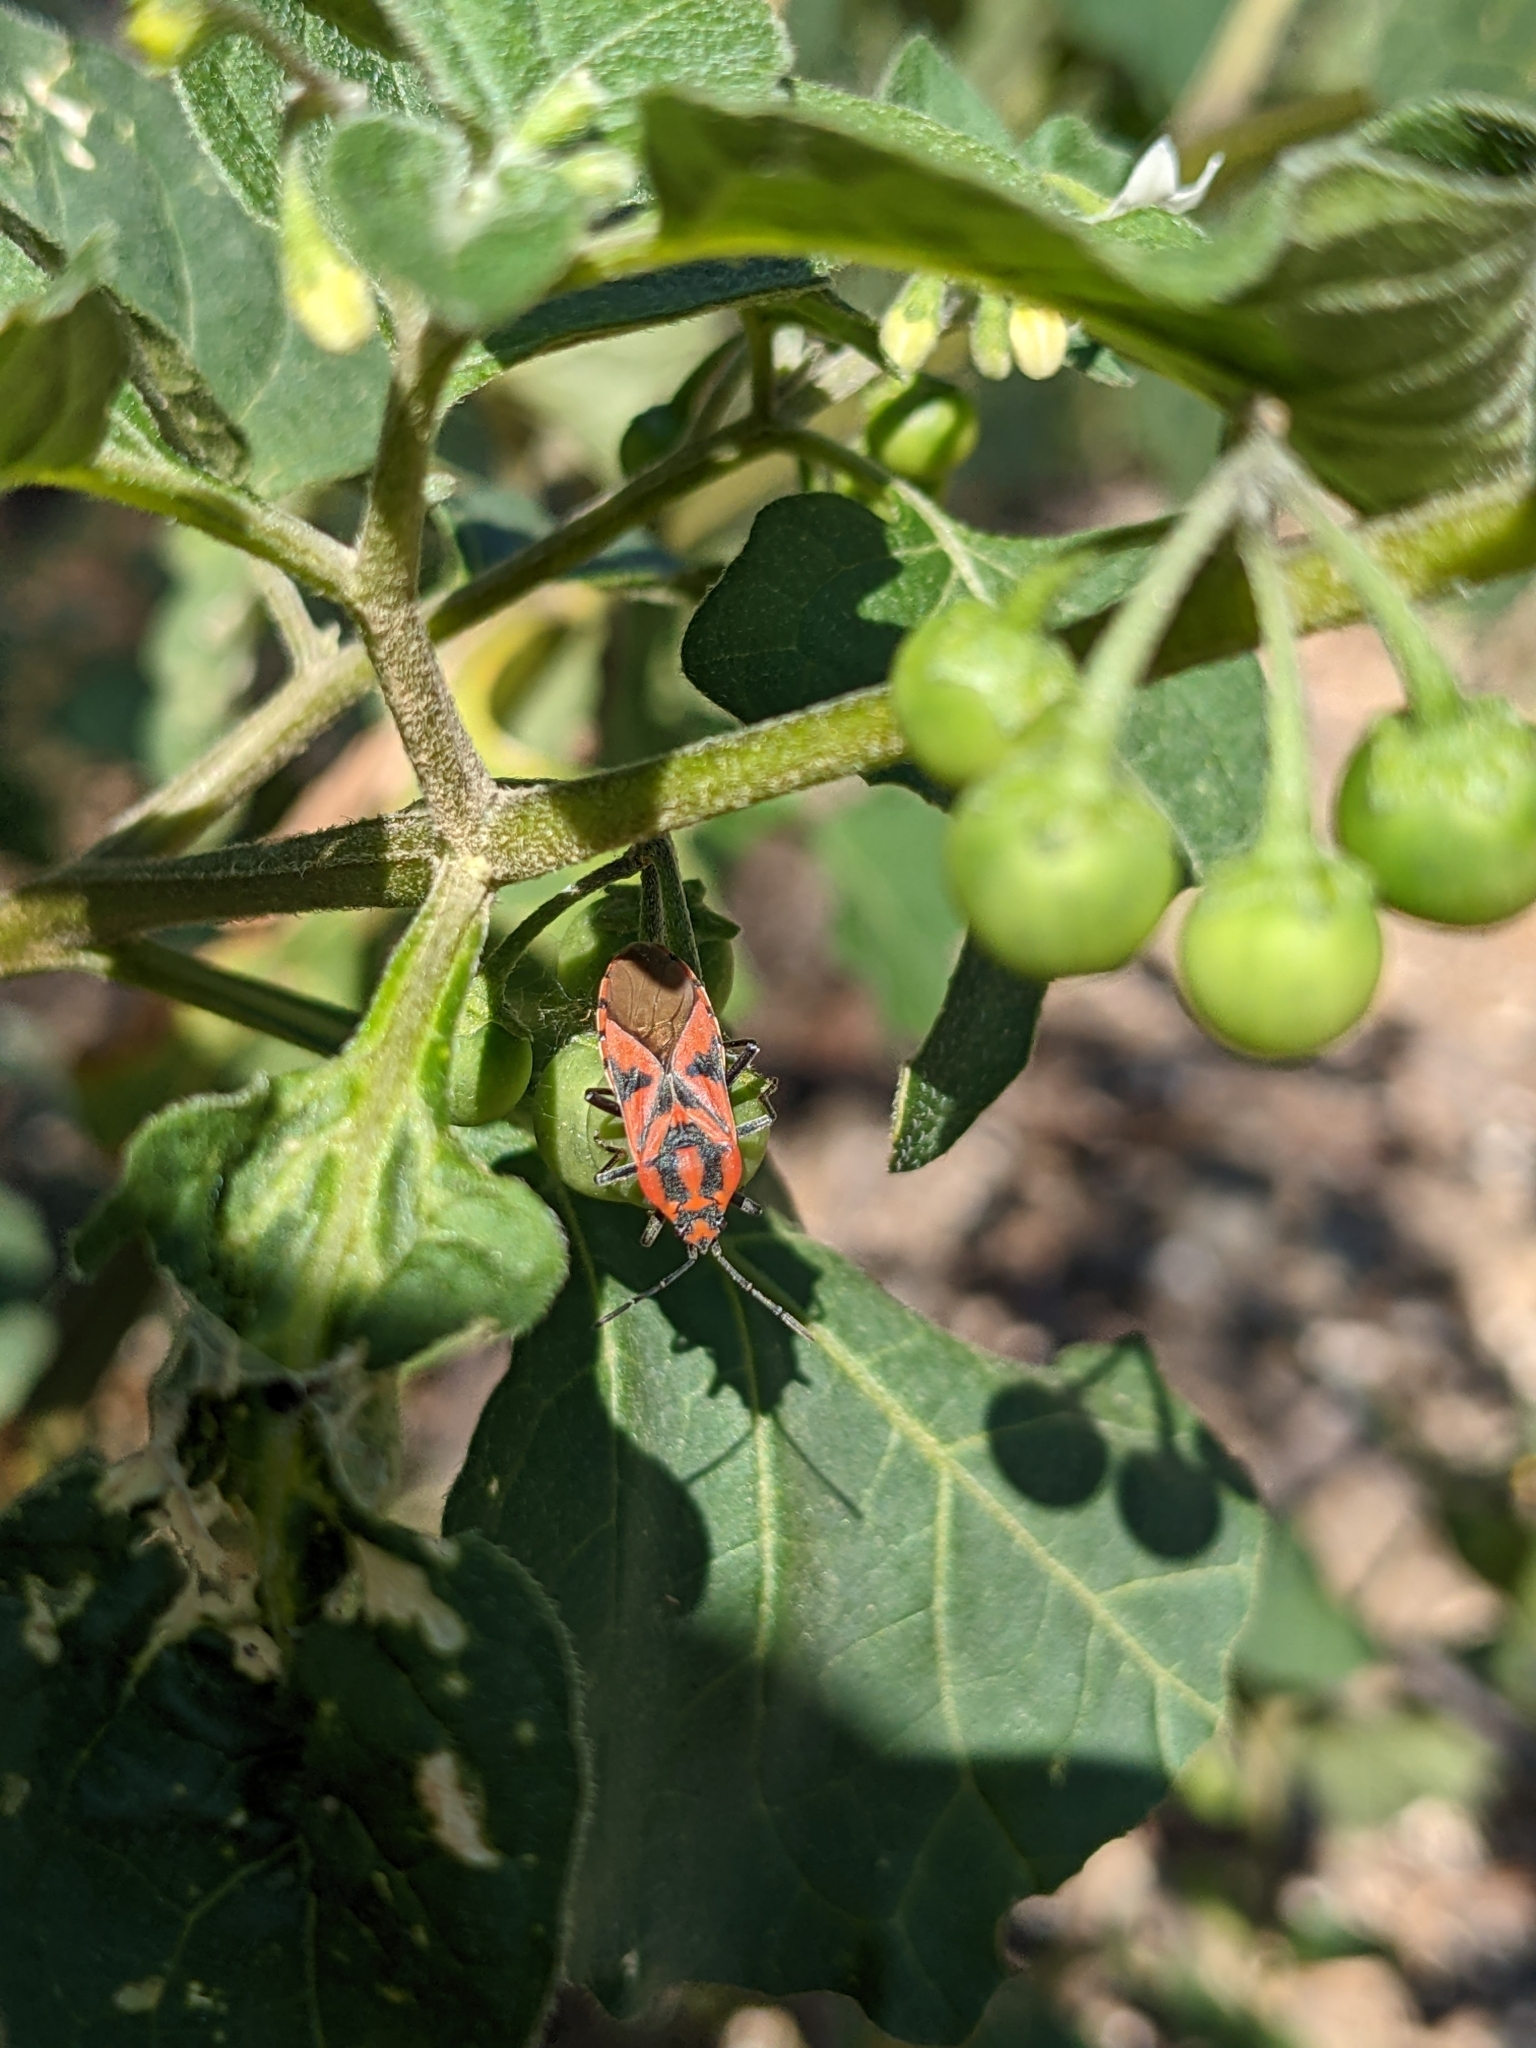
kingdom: Animalia
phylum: Arthropoda
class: Insecta
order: Hemiptera
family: Lygaeidae
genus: Spilostethus
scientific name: Spilostethus furcula
